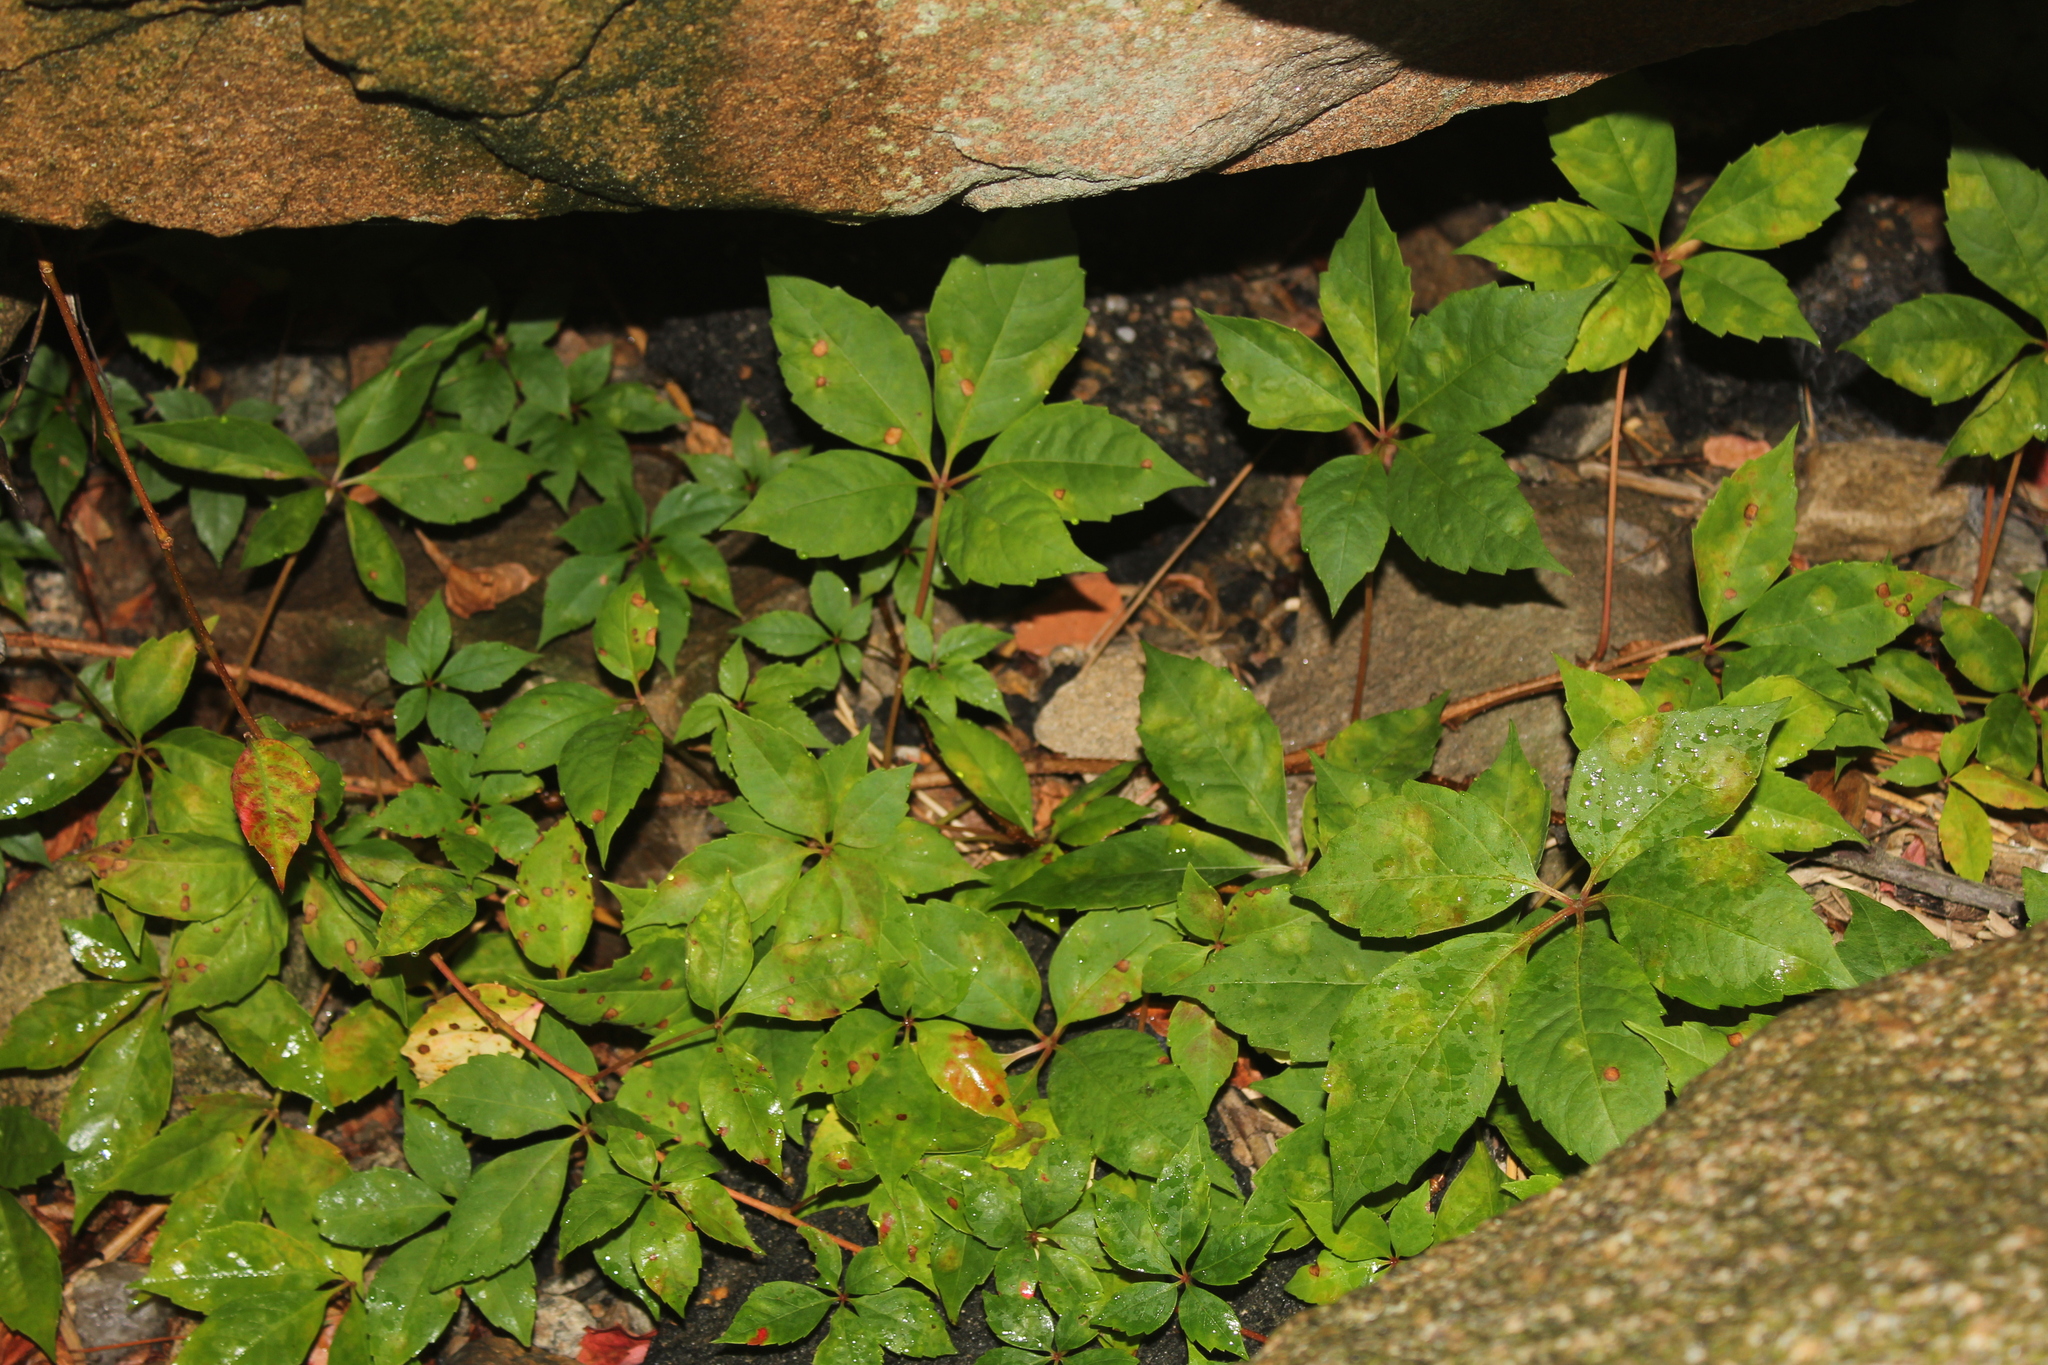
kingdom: Plantae
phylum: Tracheophyta
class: Magnoliopsida
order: Vitales
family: Vitaceae
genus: Parthenocissus
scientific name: Parthenocissus quinquefolia
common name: Virginia-creeper
